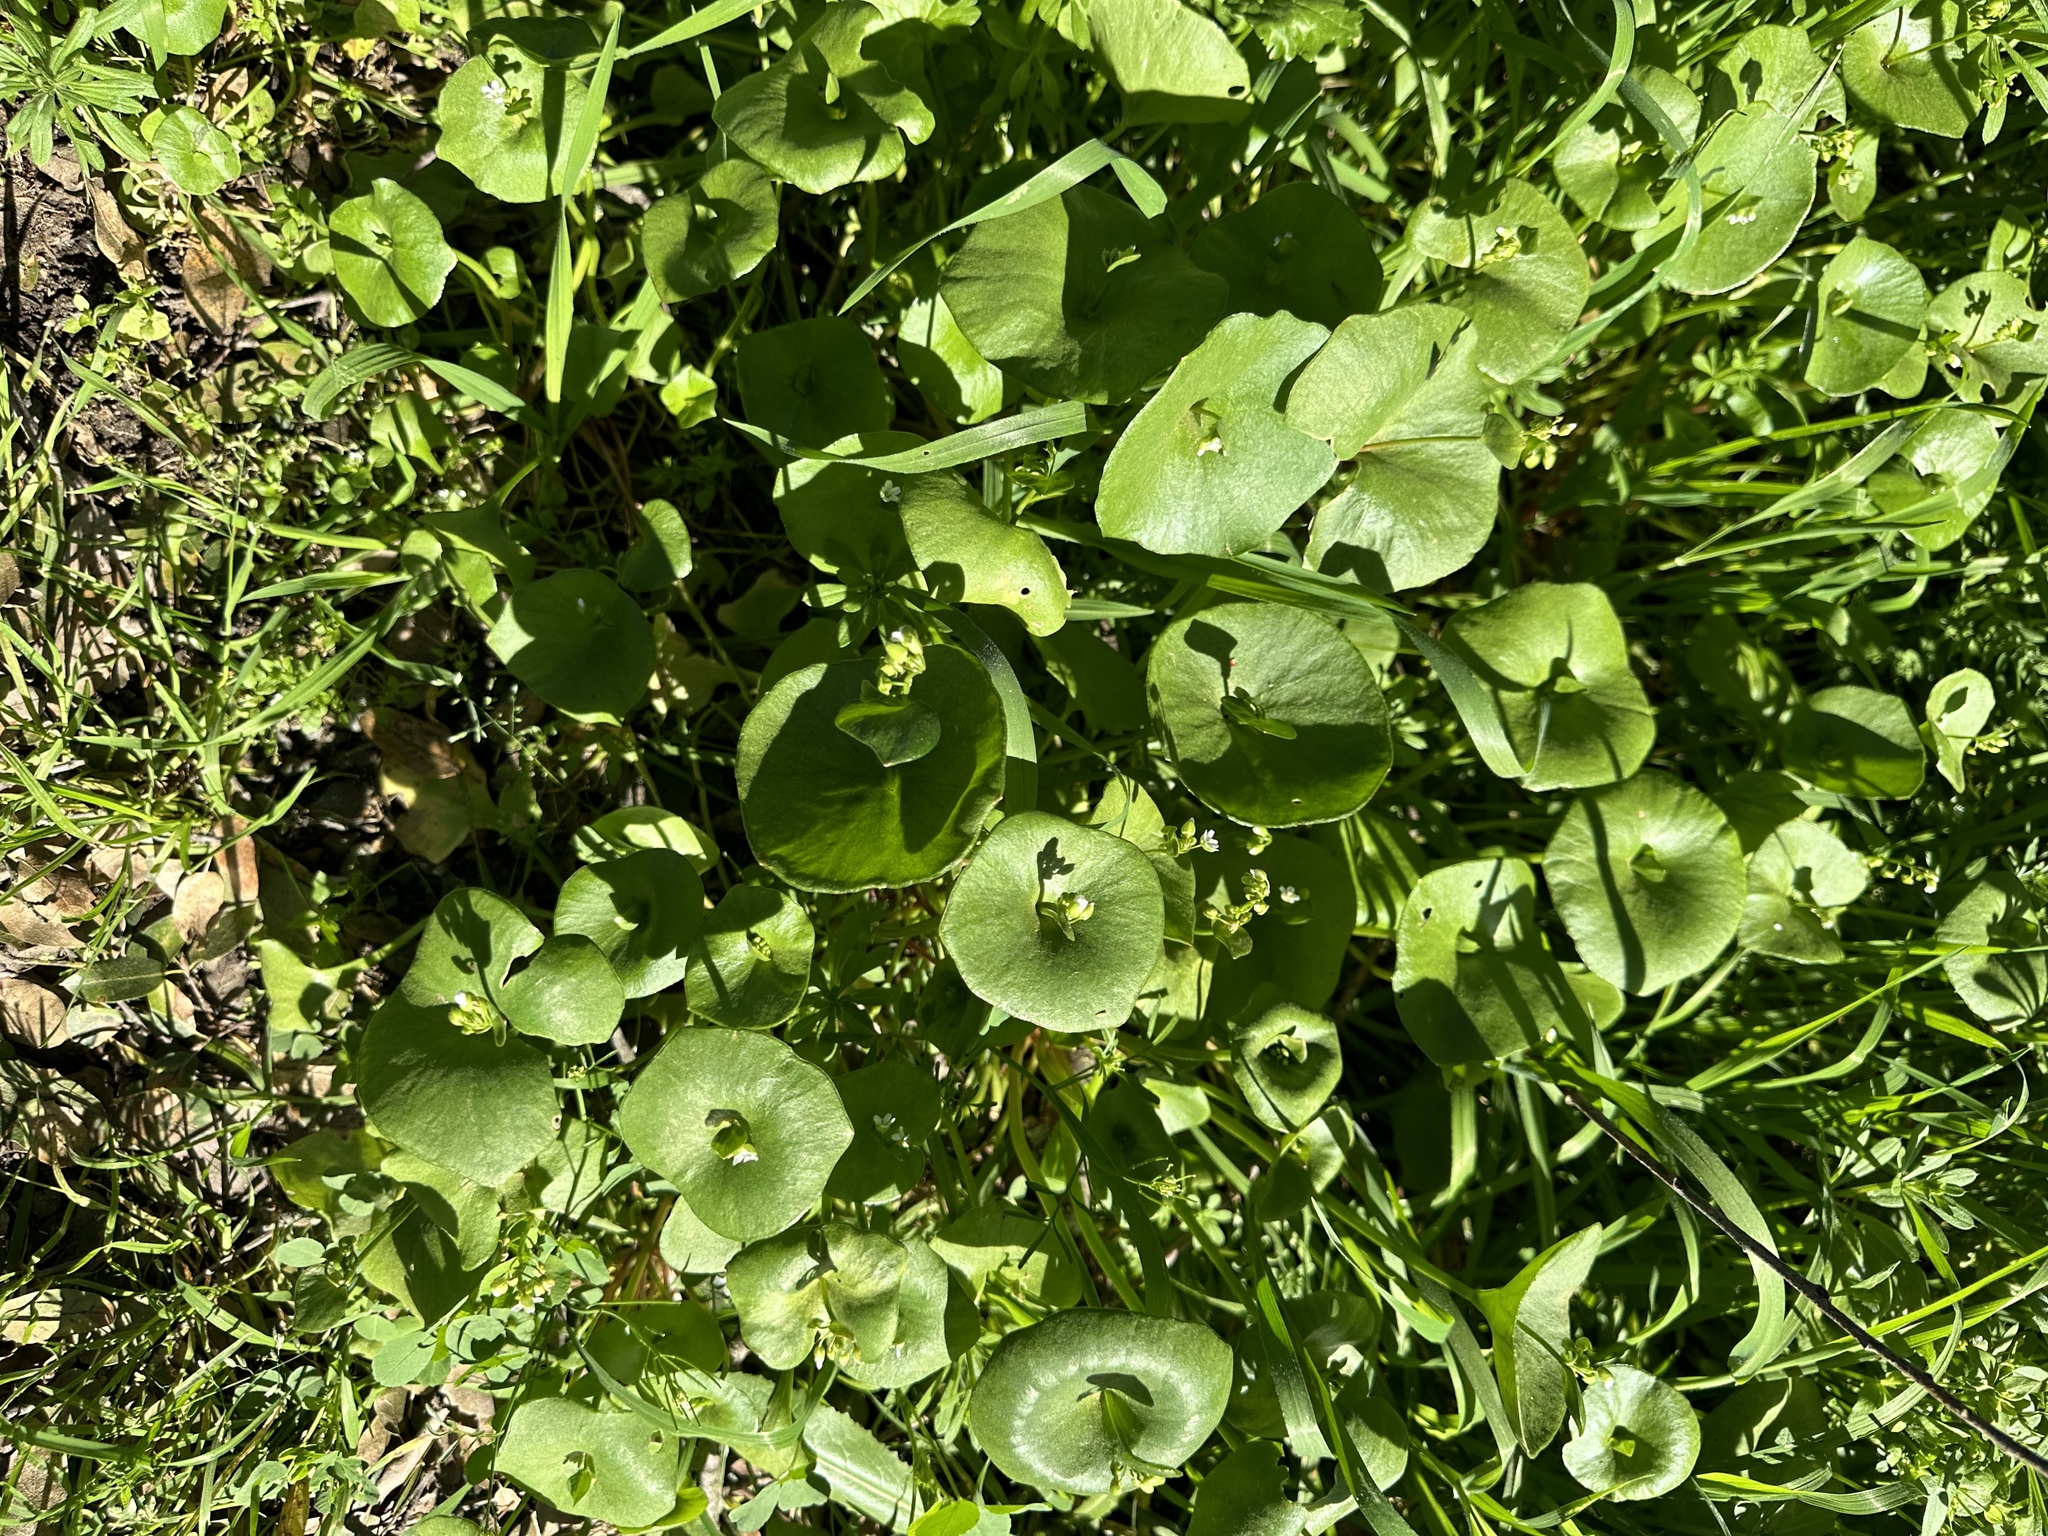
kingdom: Plantae
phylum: Tracheophyta
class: Magnoliopsida
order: Caryophyllales
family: Montiaceae
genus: Claytonia
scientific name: Claytonia perfoliata
